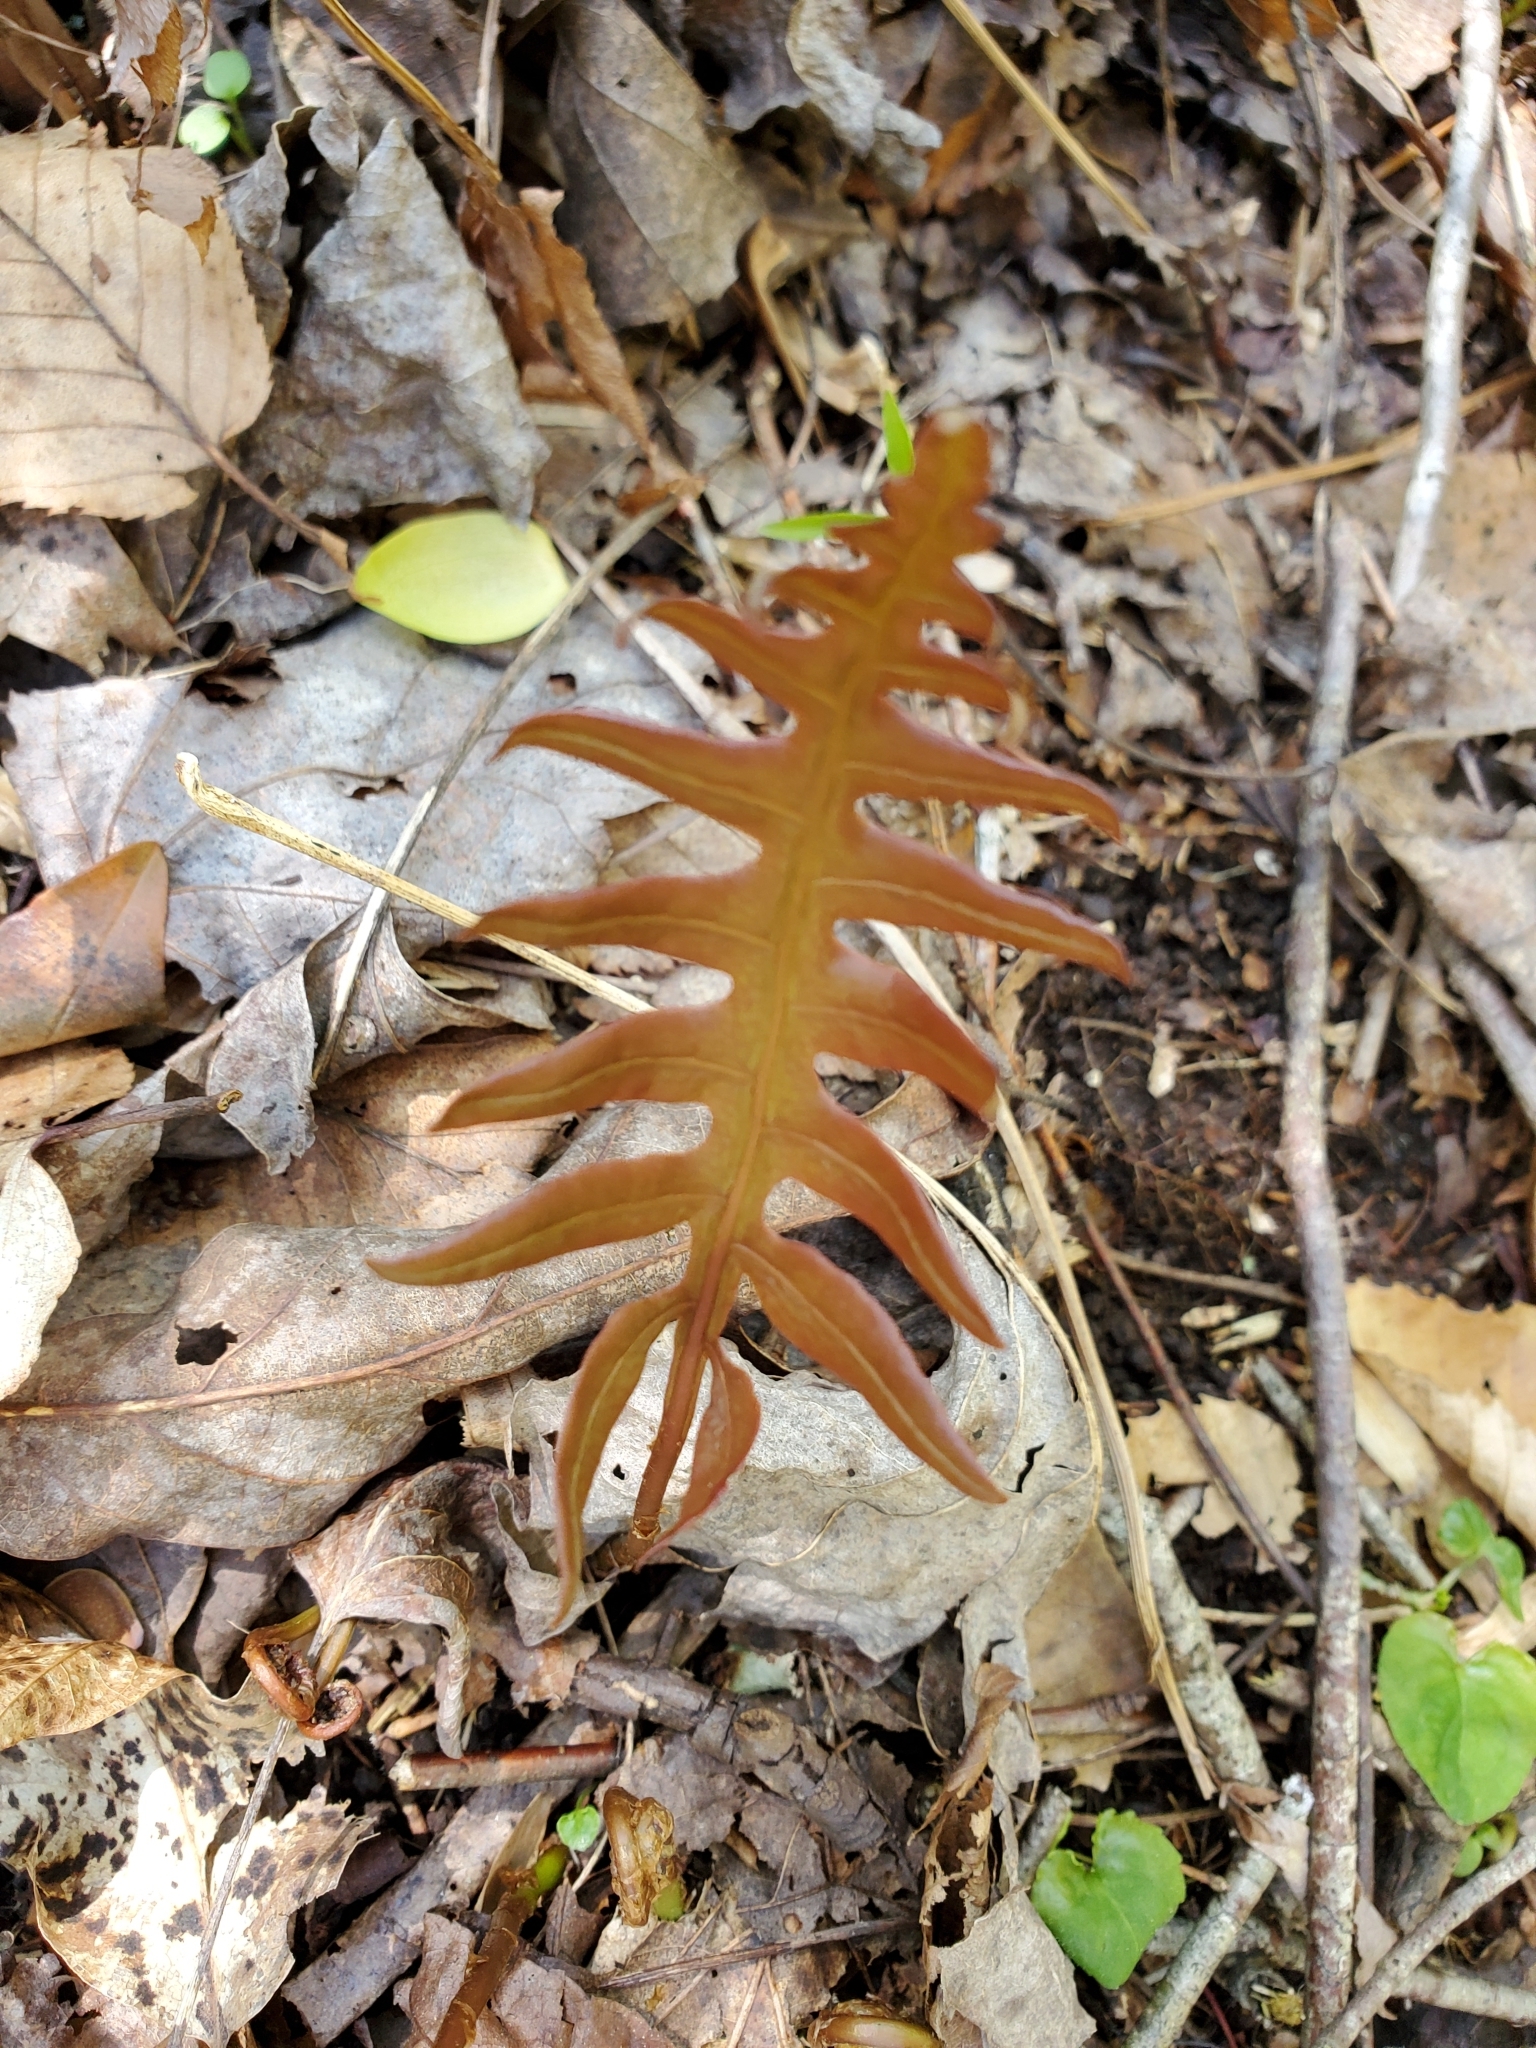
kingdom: Plantae
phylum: Tracheophyta
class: Polypodiopsida
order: Polypodiales
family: Blechnaceae
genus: Lorinseria
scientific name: Lorinseria areolata
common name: Dwarf chain fern
